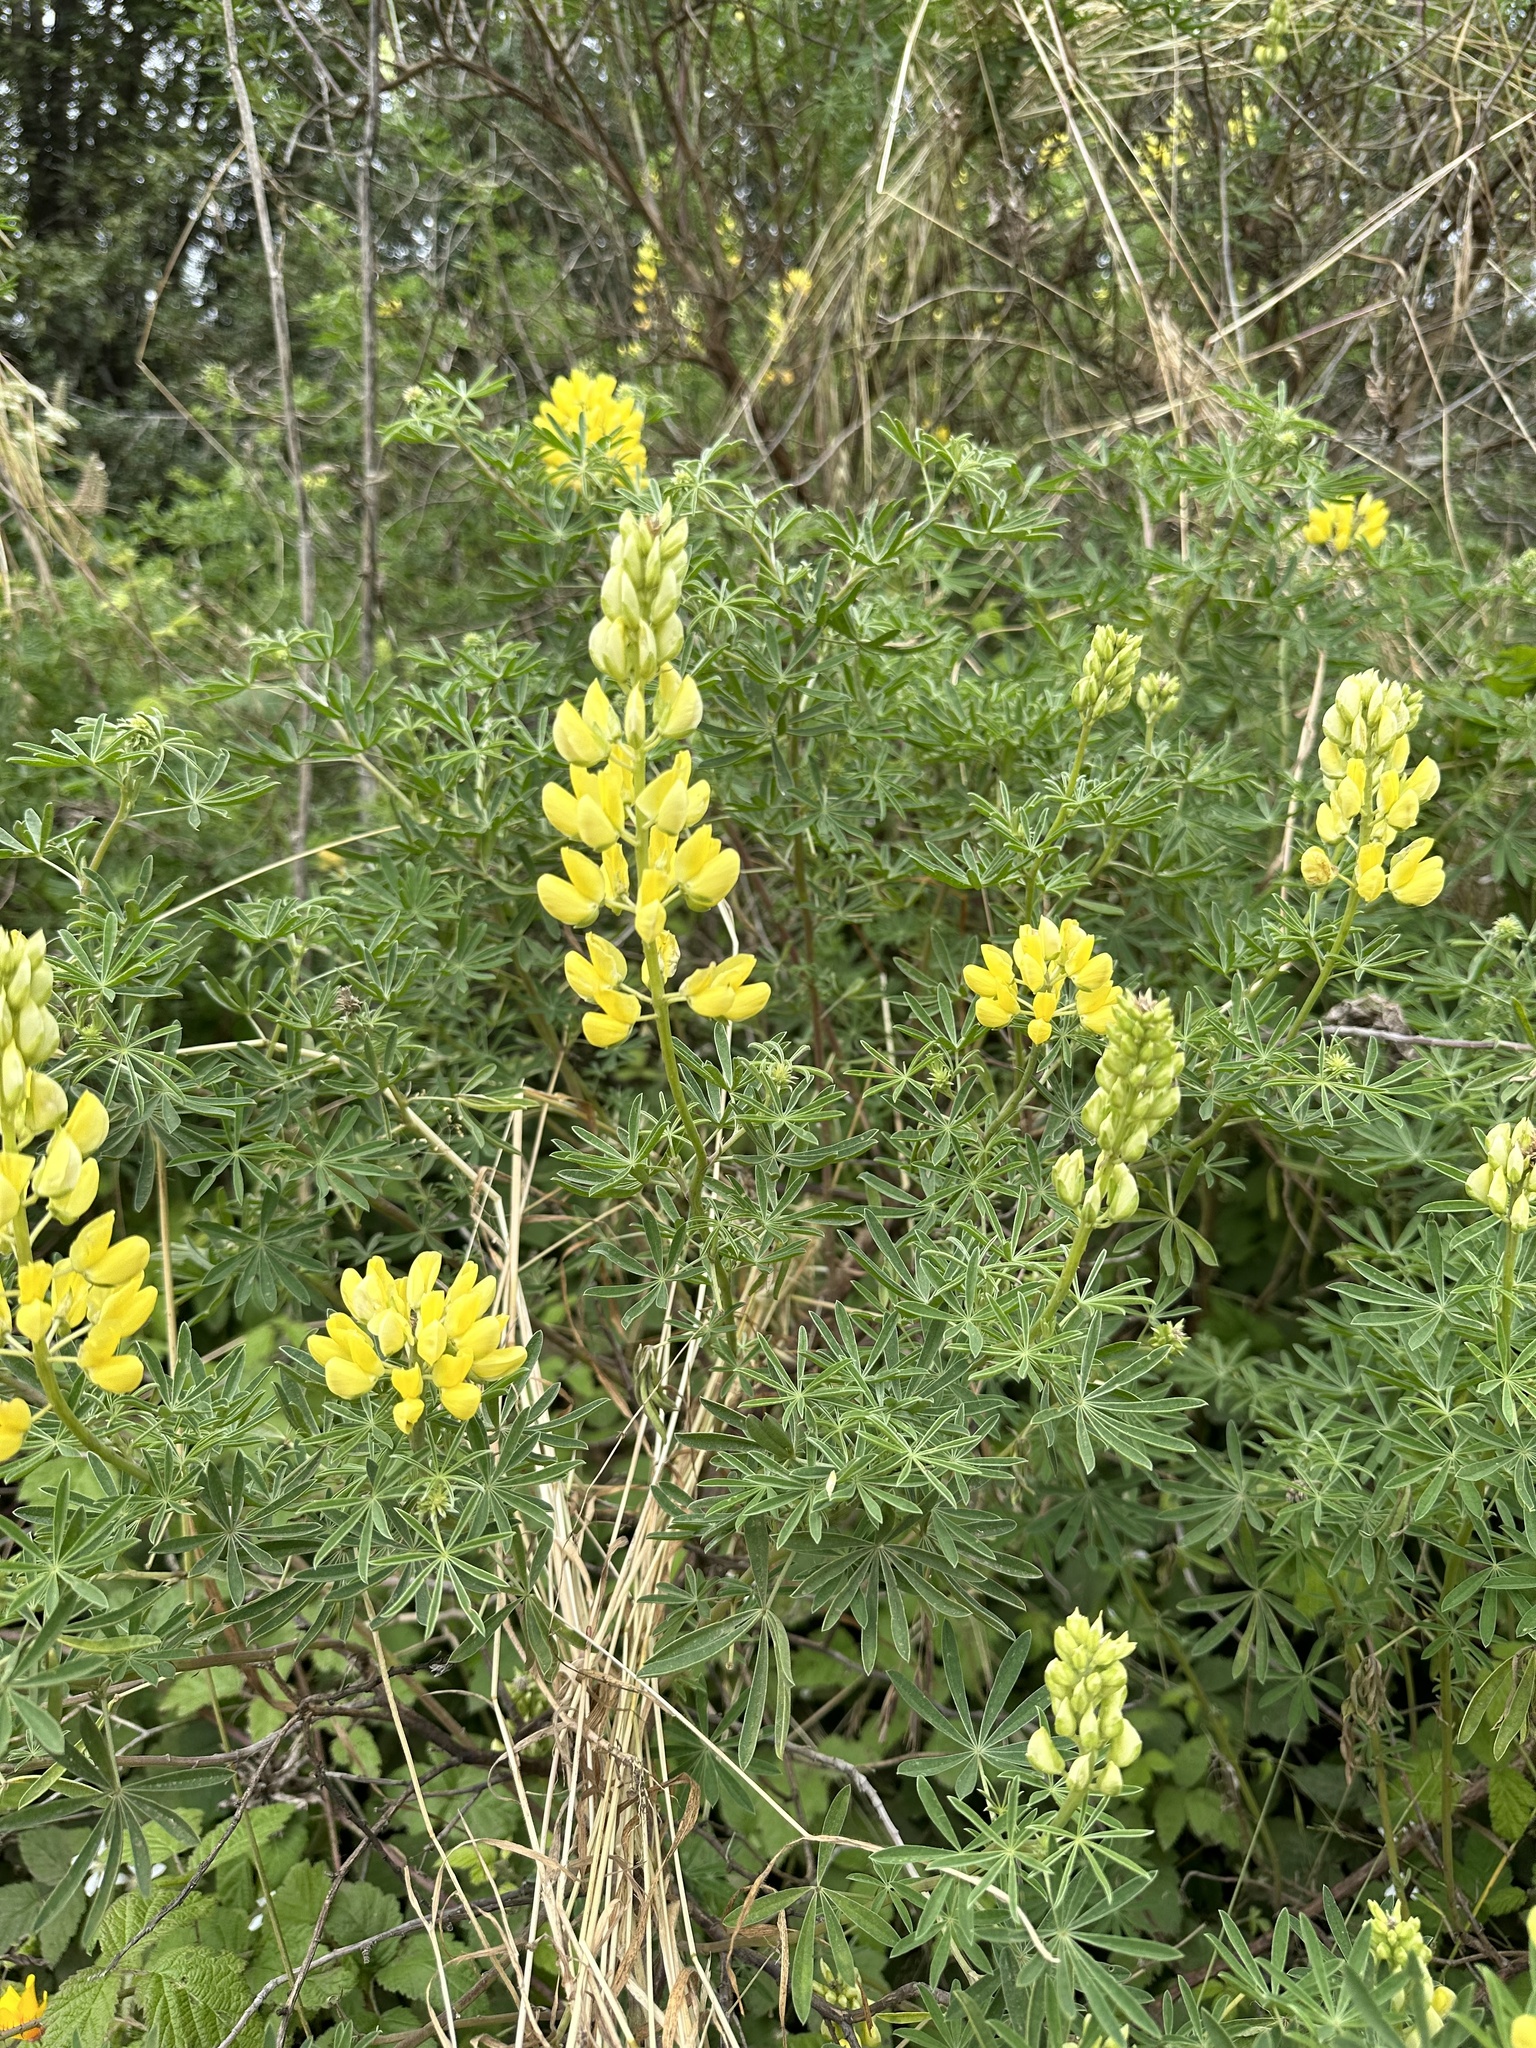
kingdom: Plantae
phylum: Tracheophyta
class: Magnoliopsida
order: Fabales
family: Fabaceae
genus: Lupinus
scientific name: Lupinus arboreus
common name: Yellow bush lupine
